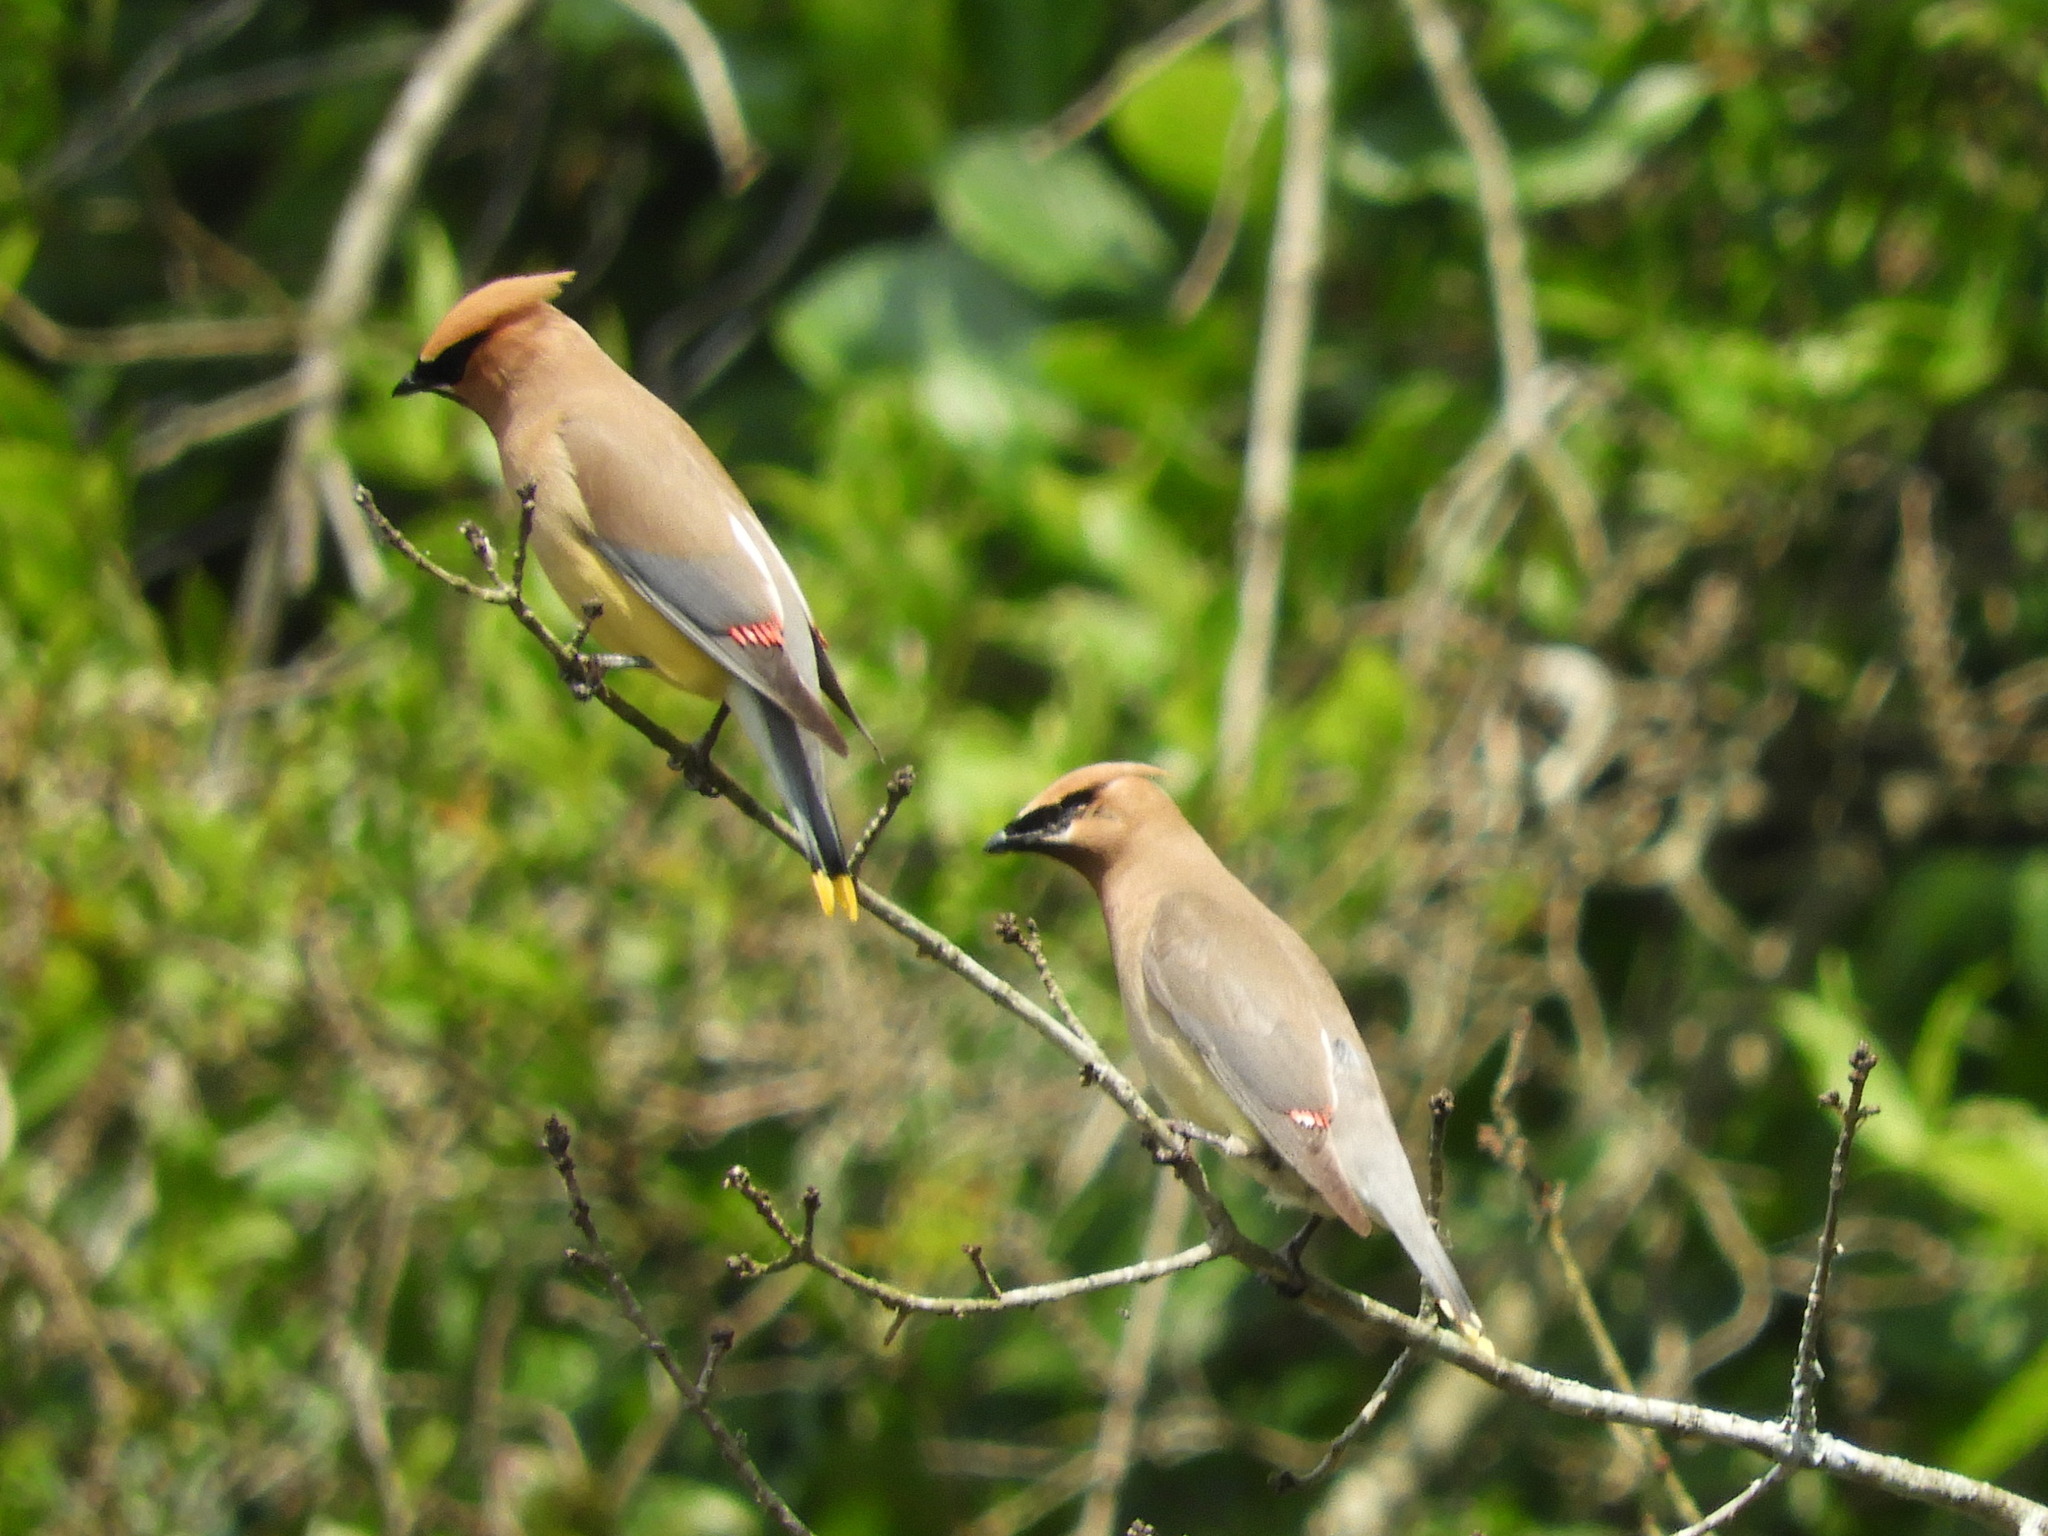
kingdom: Animalia
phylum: Chordata
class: Aves
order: Passeriformes
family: Bombycillidae
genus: Bombycilla
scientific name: Bombycilla cedrorum
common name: Cedar waxwing
